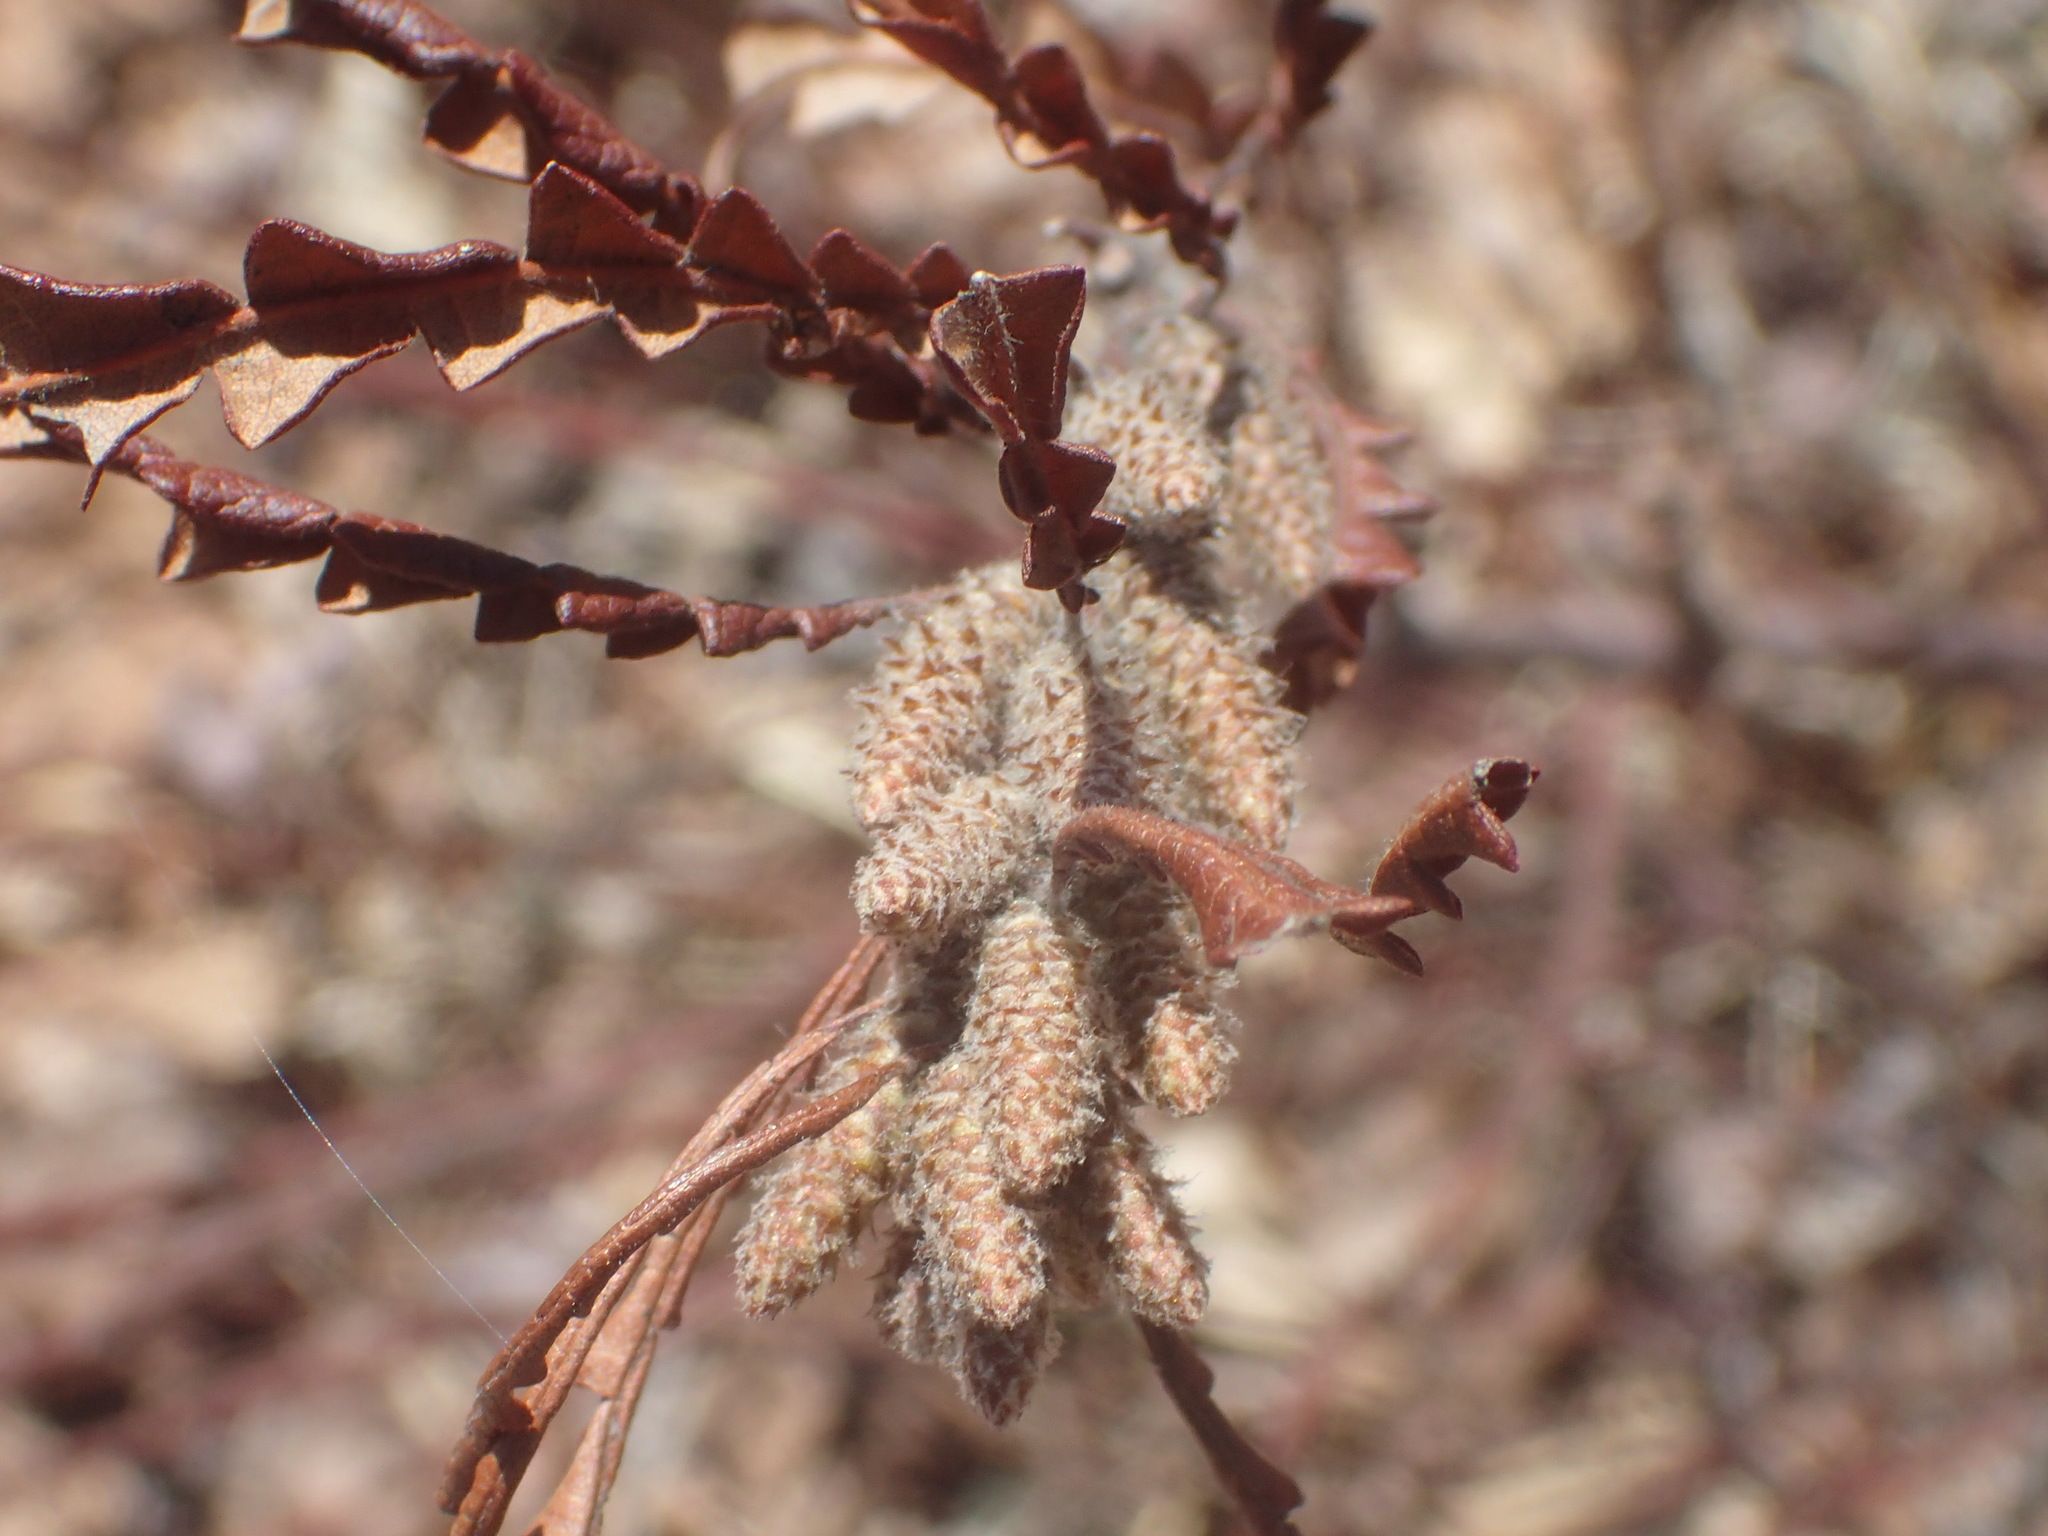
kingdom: Plantae
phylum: Tracheophyta
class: Magnoliopsida
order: Fagales
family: Myricaceae
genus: Comptonia
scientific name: Comptonia peregrina
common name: Sweet-fern
